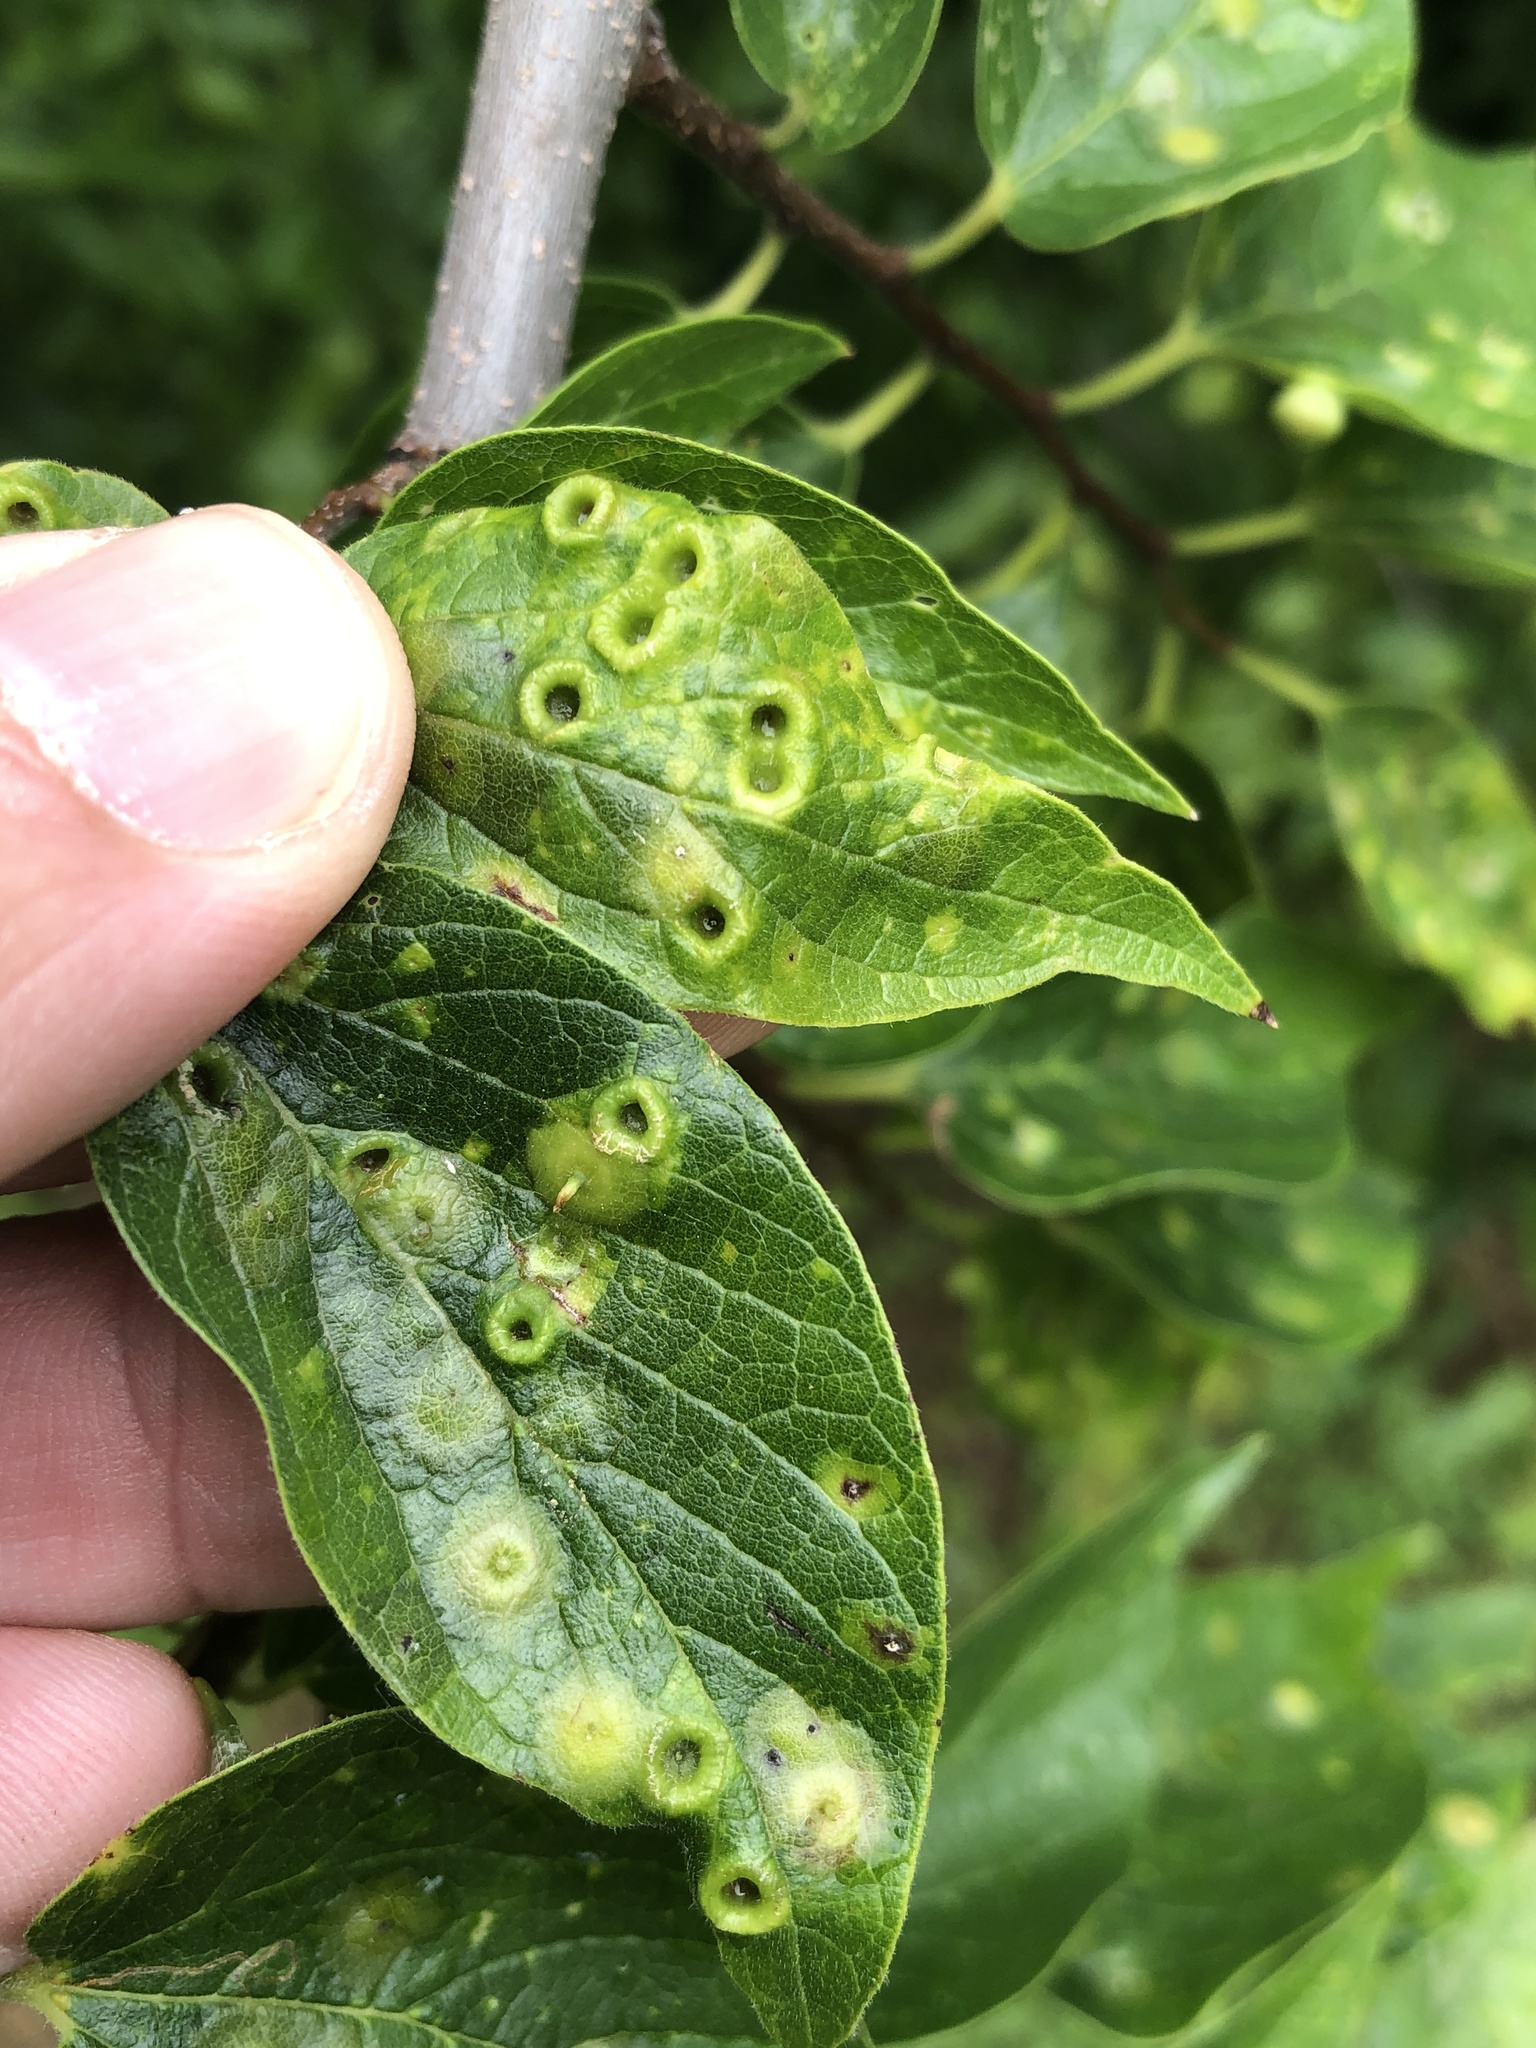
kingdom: Animalia
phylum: Arthropoda
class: Insecta
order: Hemiptera
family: Aphalaridae
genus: Pachypsylla
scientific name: Pachypsylla celtidismamma
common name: Hackberry nipplegall psyllid
